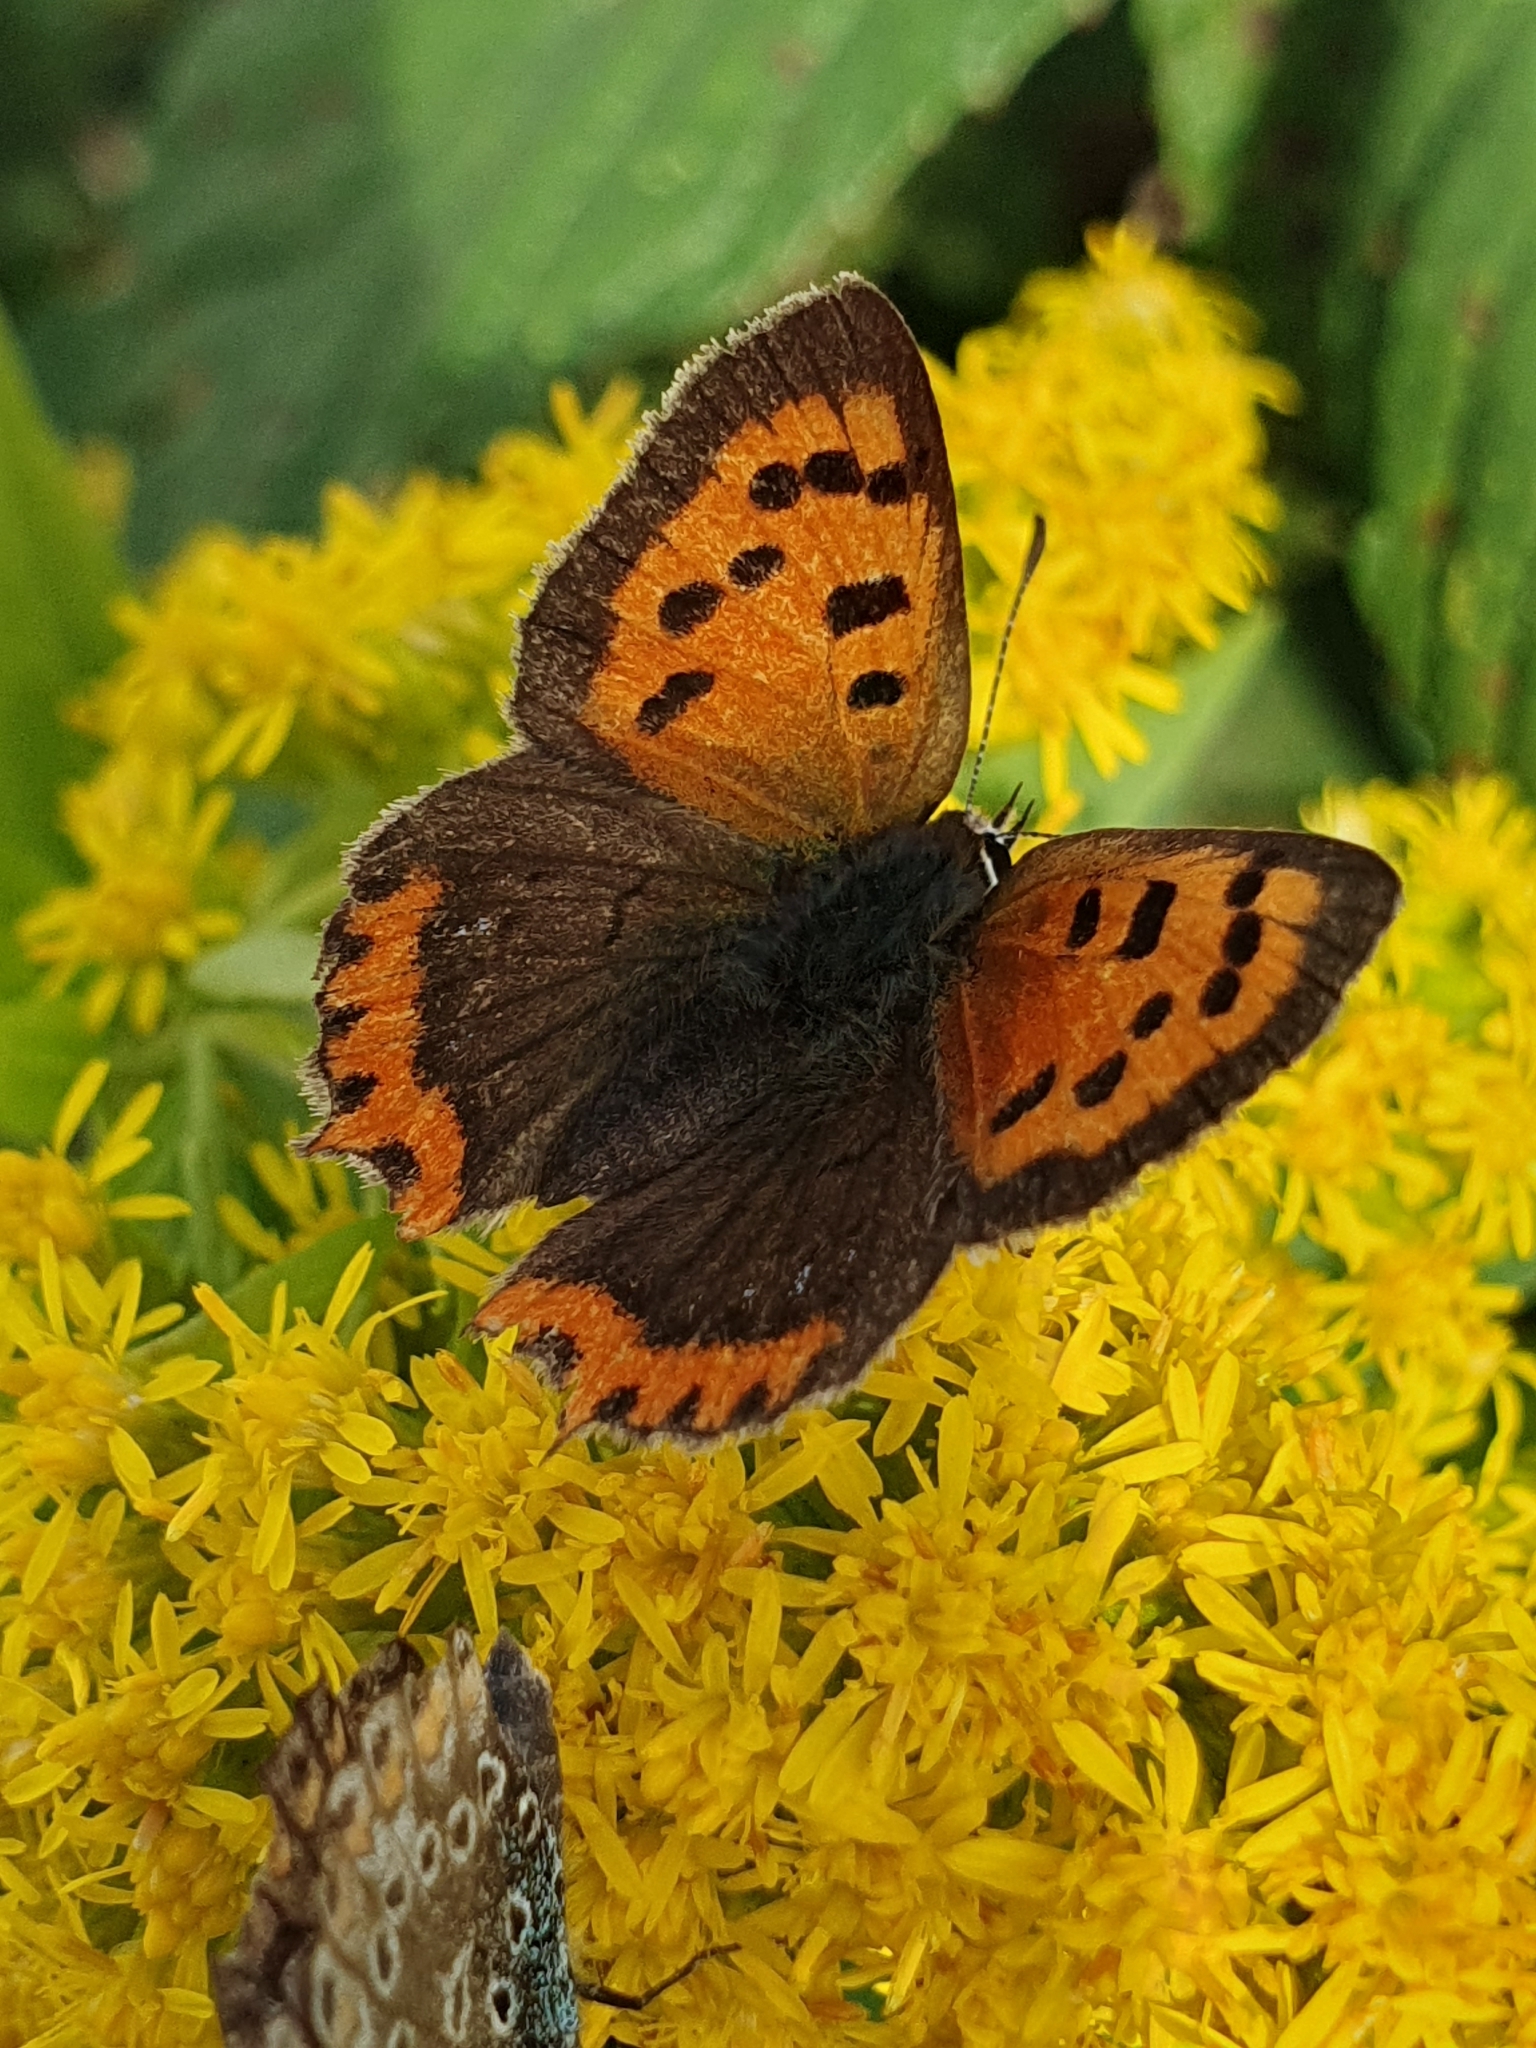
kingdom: Animalia
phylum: Arthropoda
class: Insecta
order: Lepidoptera
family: Lycaenidae
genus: Lycaena
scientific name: Lycaena phlaeas
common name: Small copper
